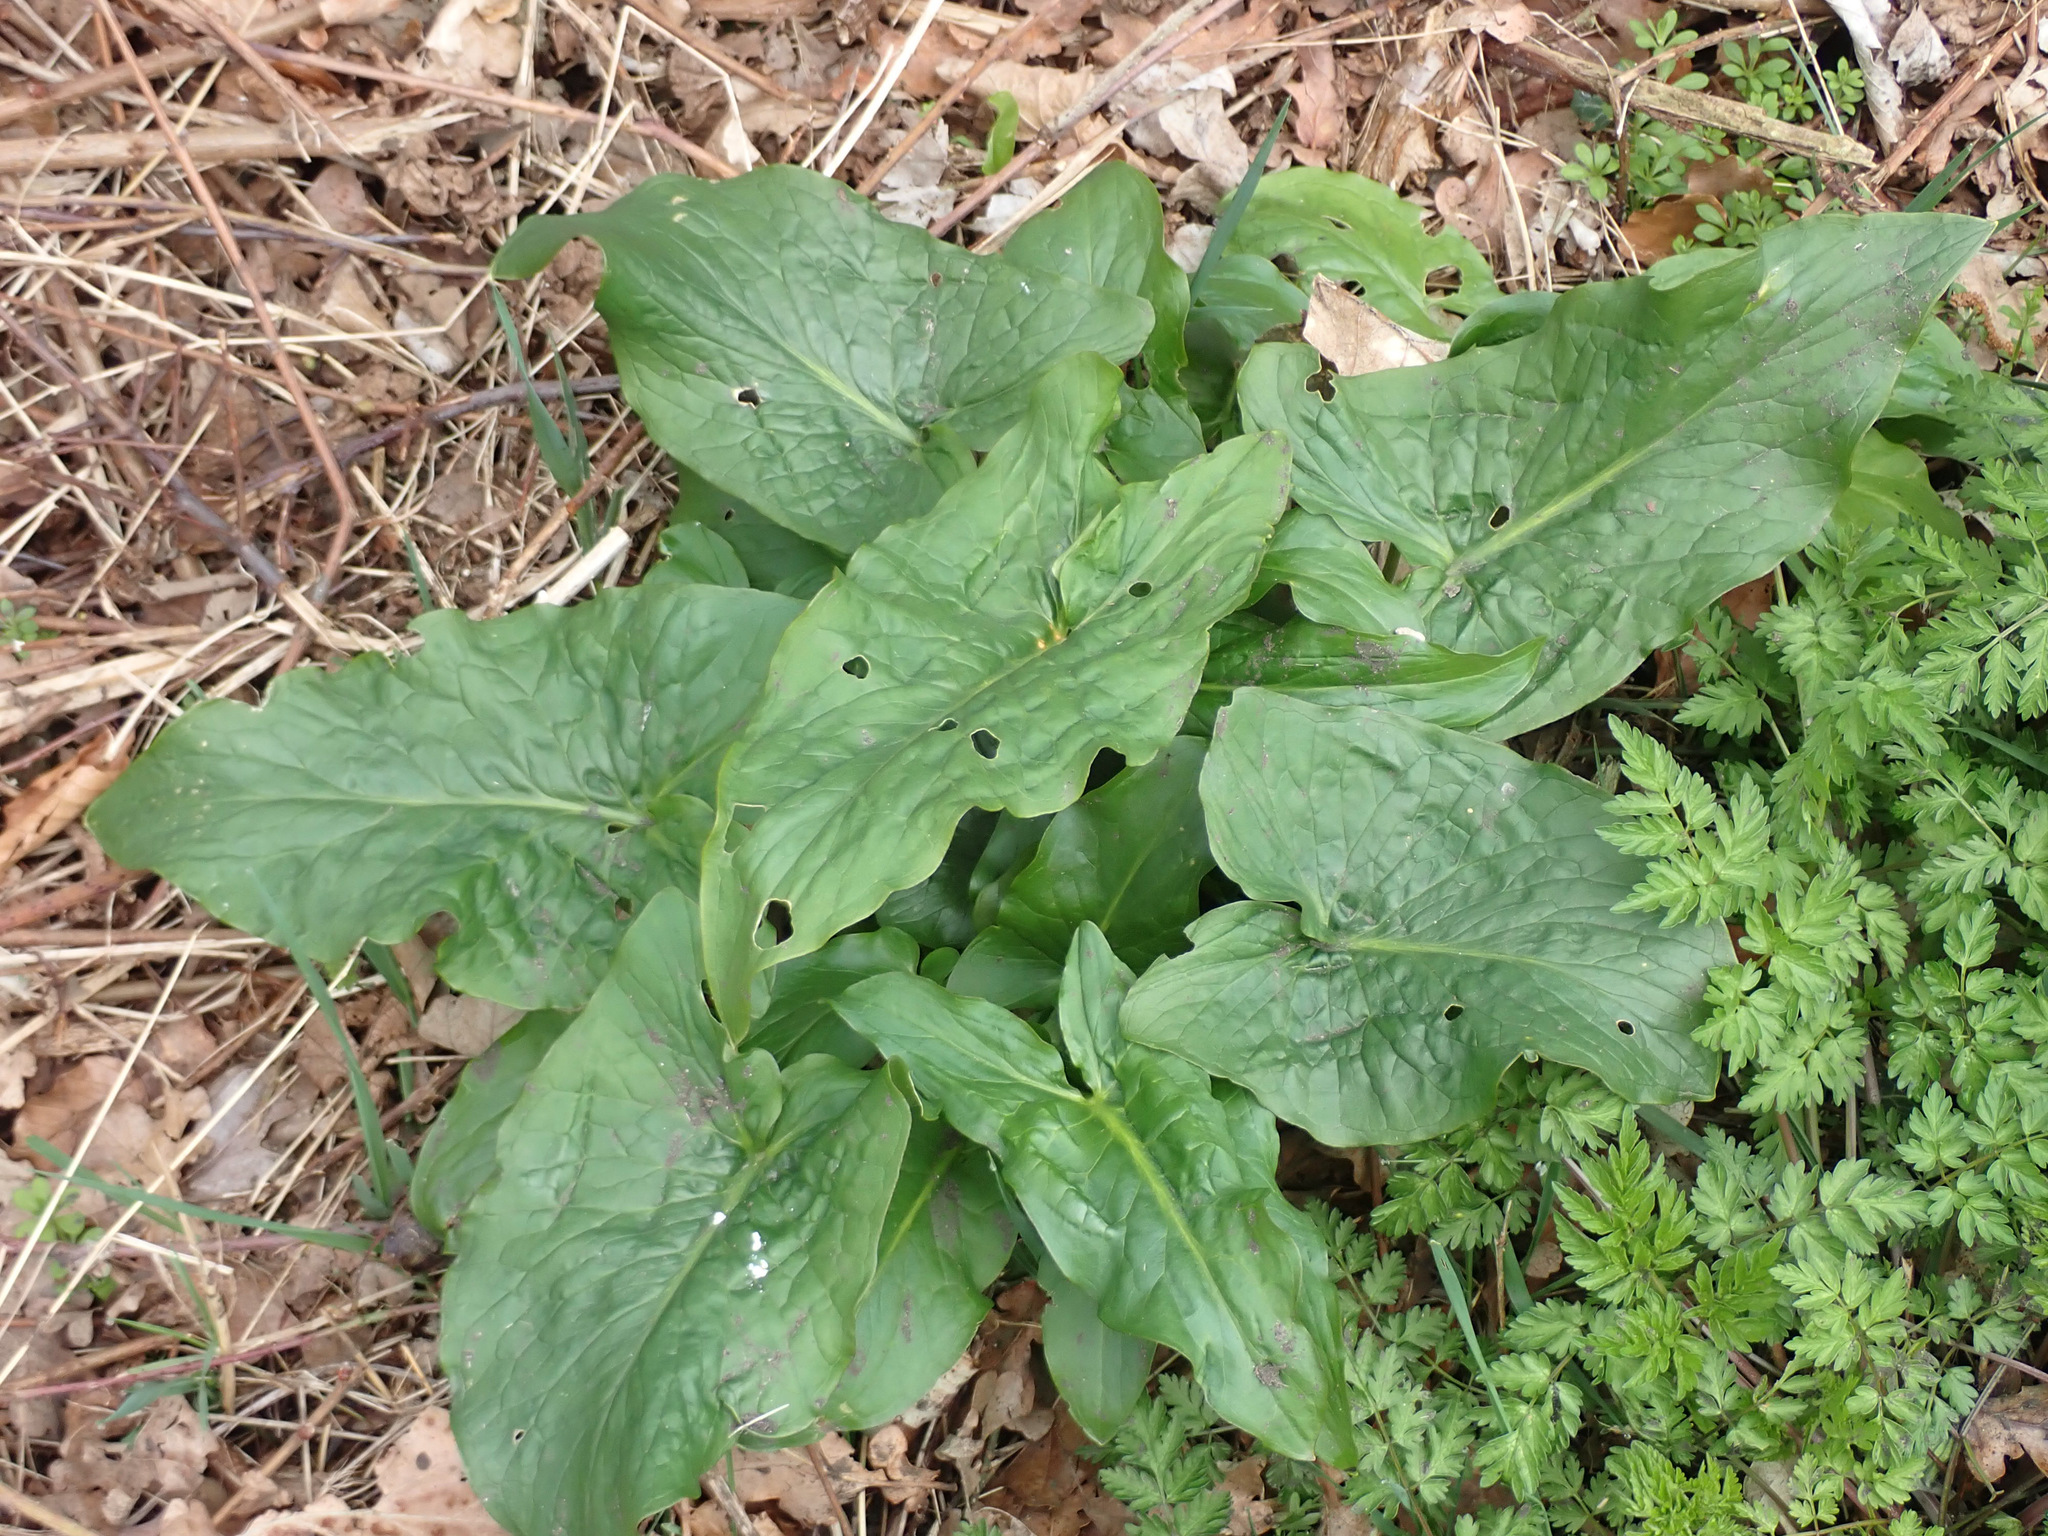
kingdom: Plantae
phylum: Tracheophyta
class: Liliopsida
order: Alismatales
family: Araceae
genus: Arum
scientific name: Arum maculatum
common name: Lords-and-ladies
